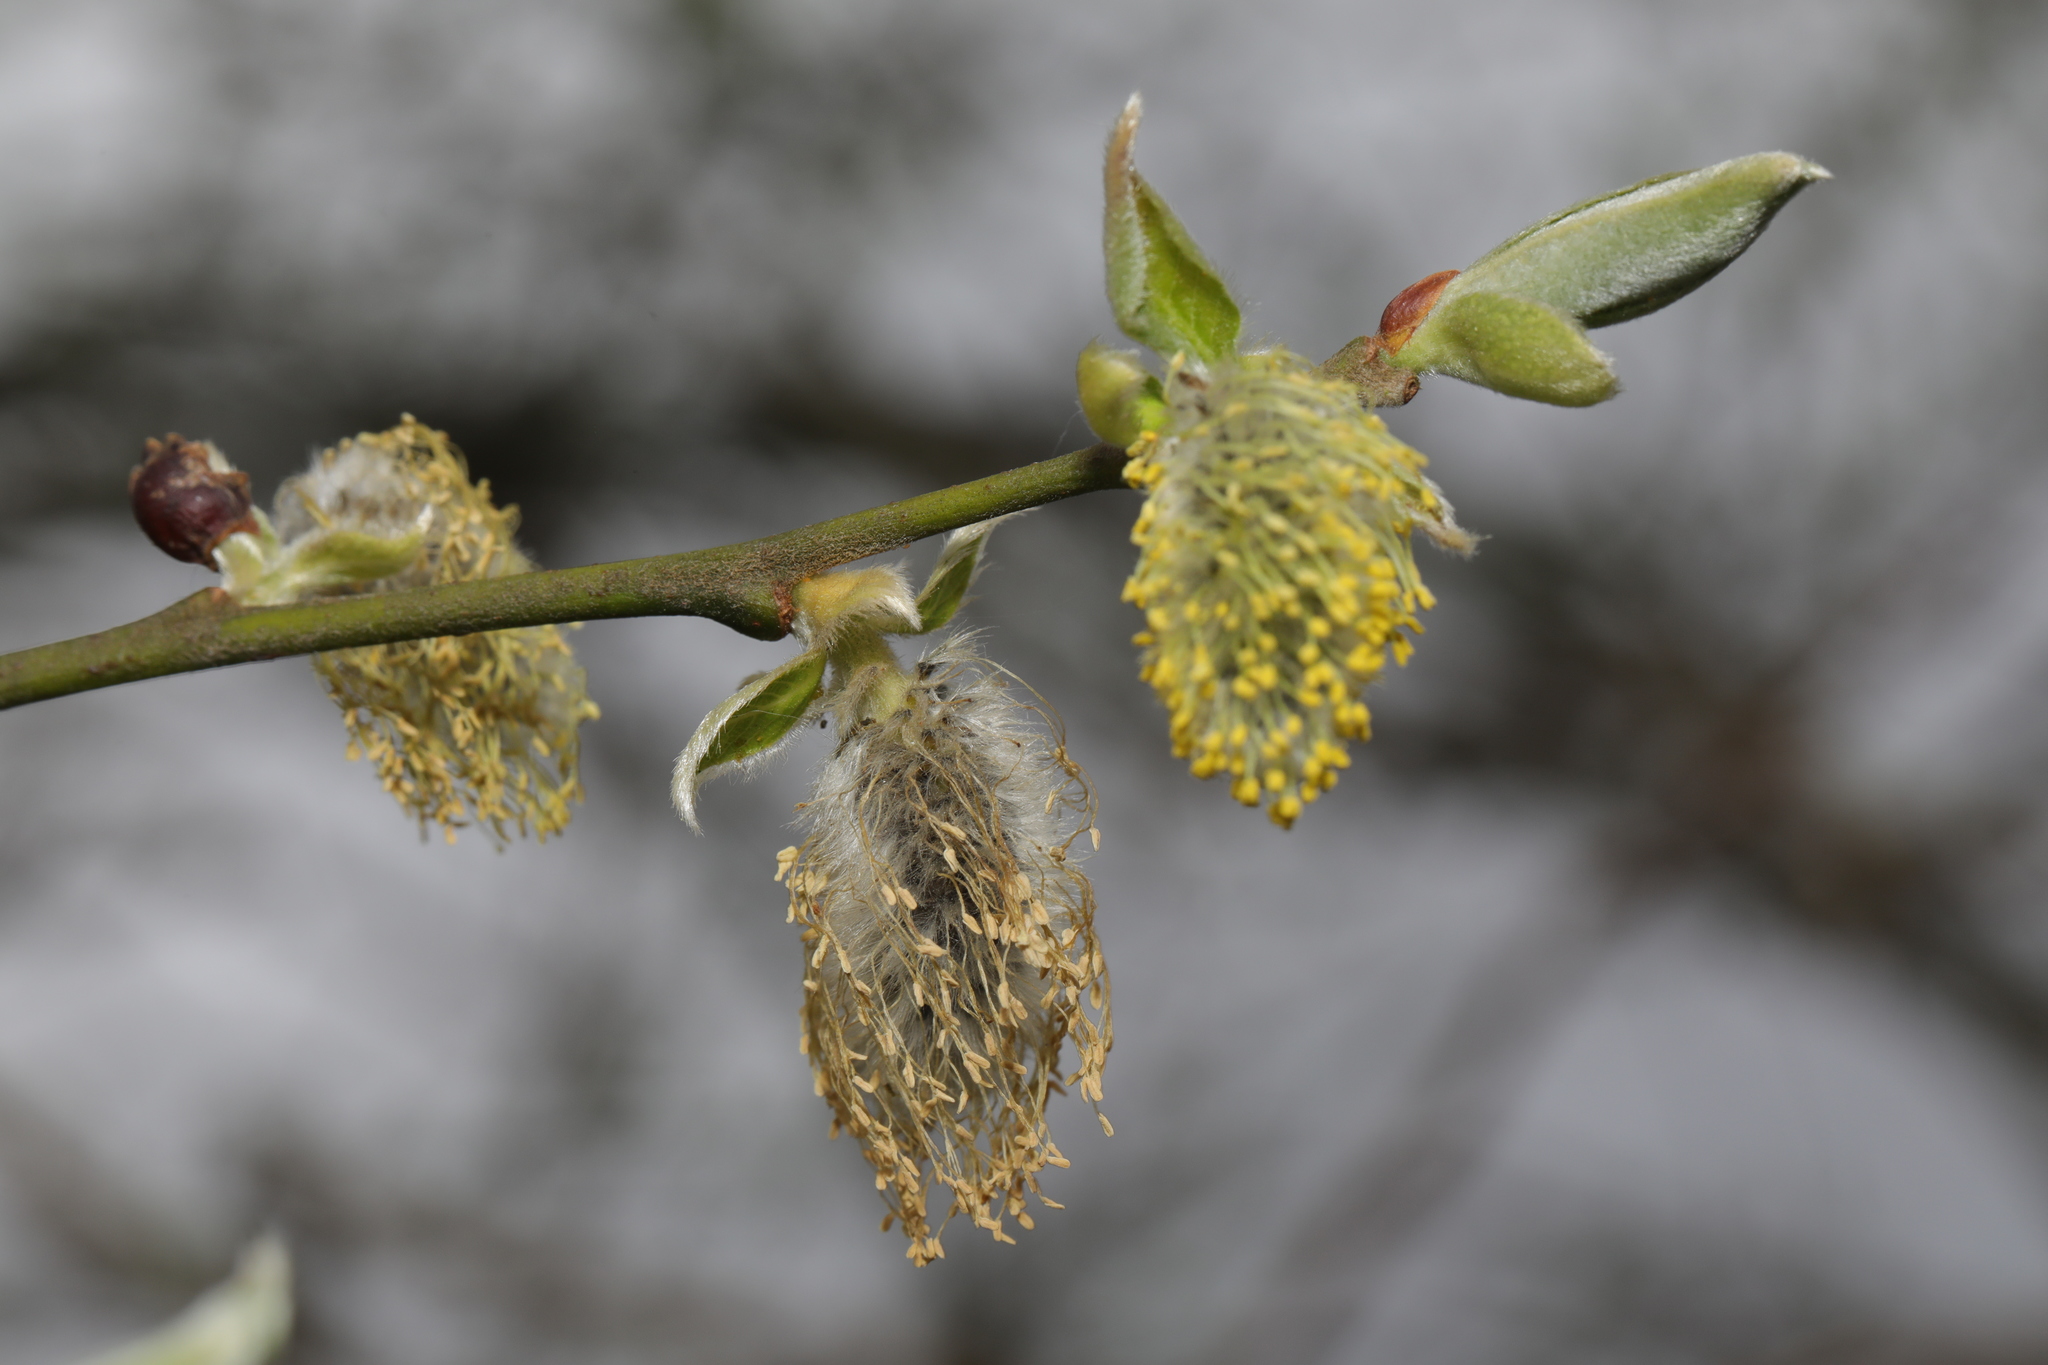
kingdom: Plantae
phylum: Tracheophyta
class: Magnoliopsida
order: Malpighiales
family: Salicaceae
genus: Salix
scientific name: Salix caprea
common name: Goat willow
